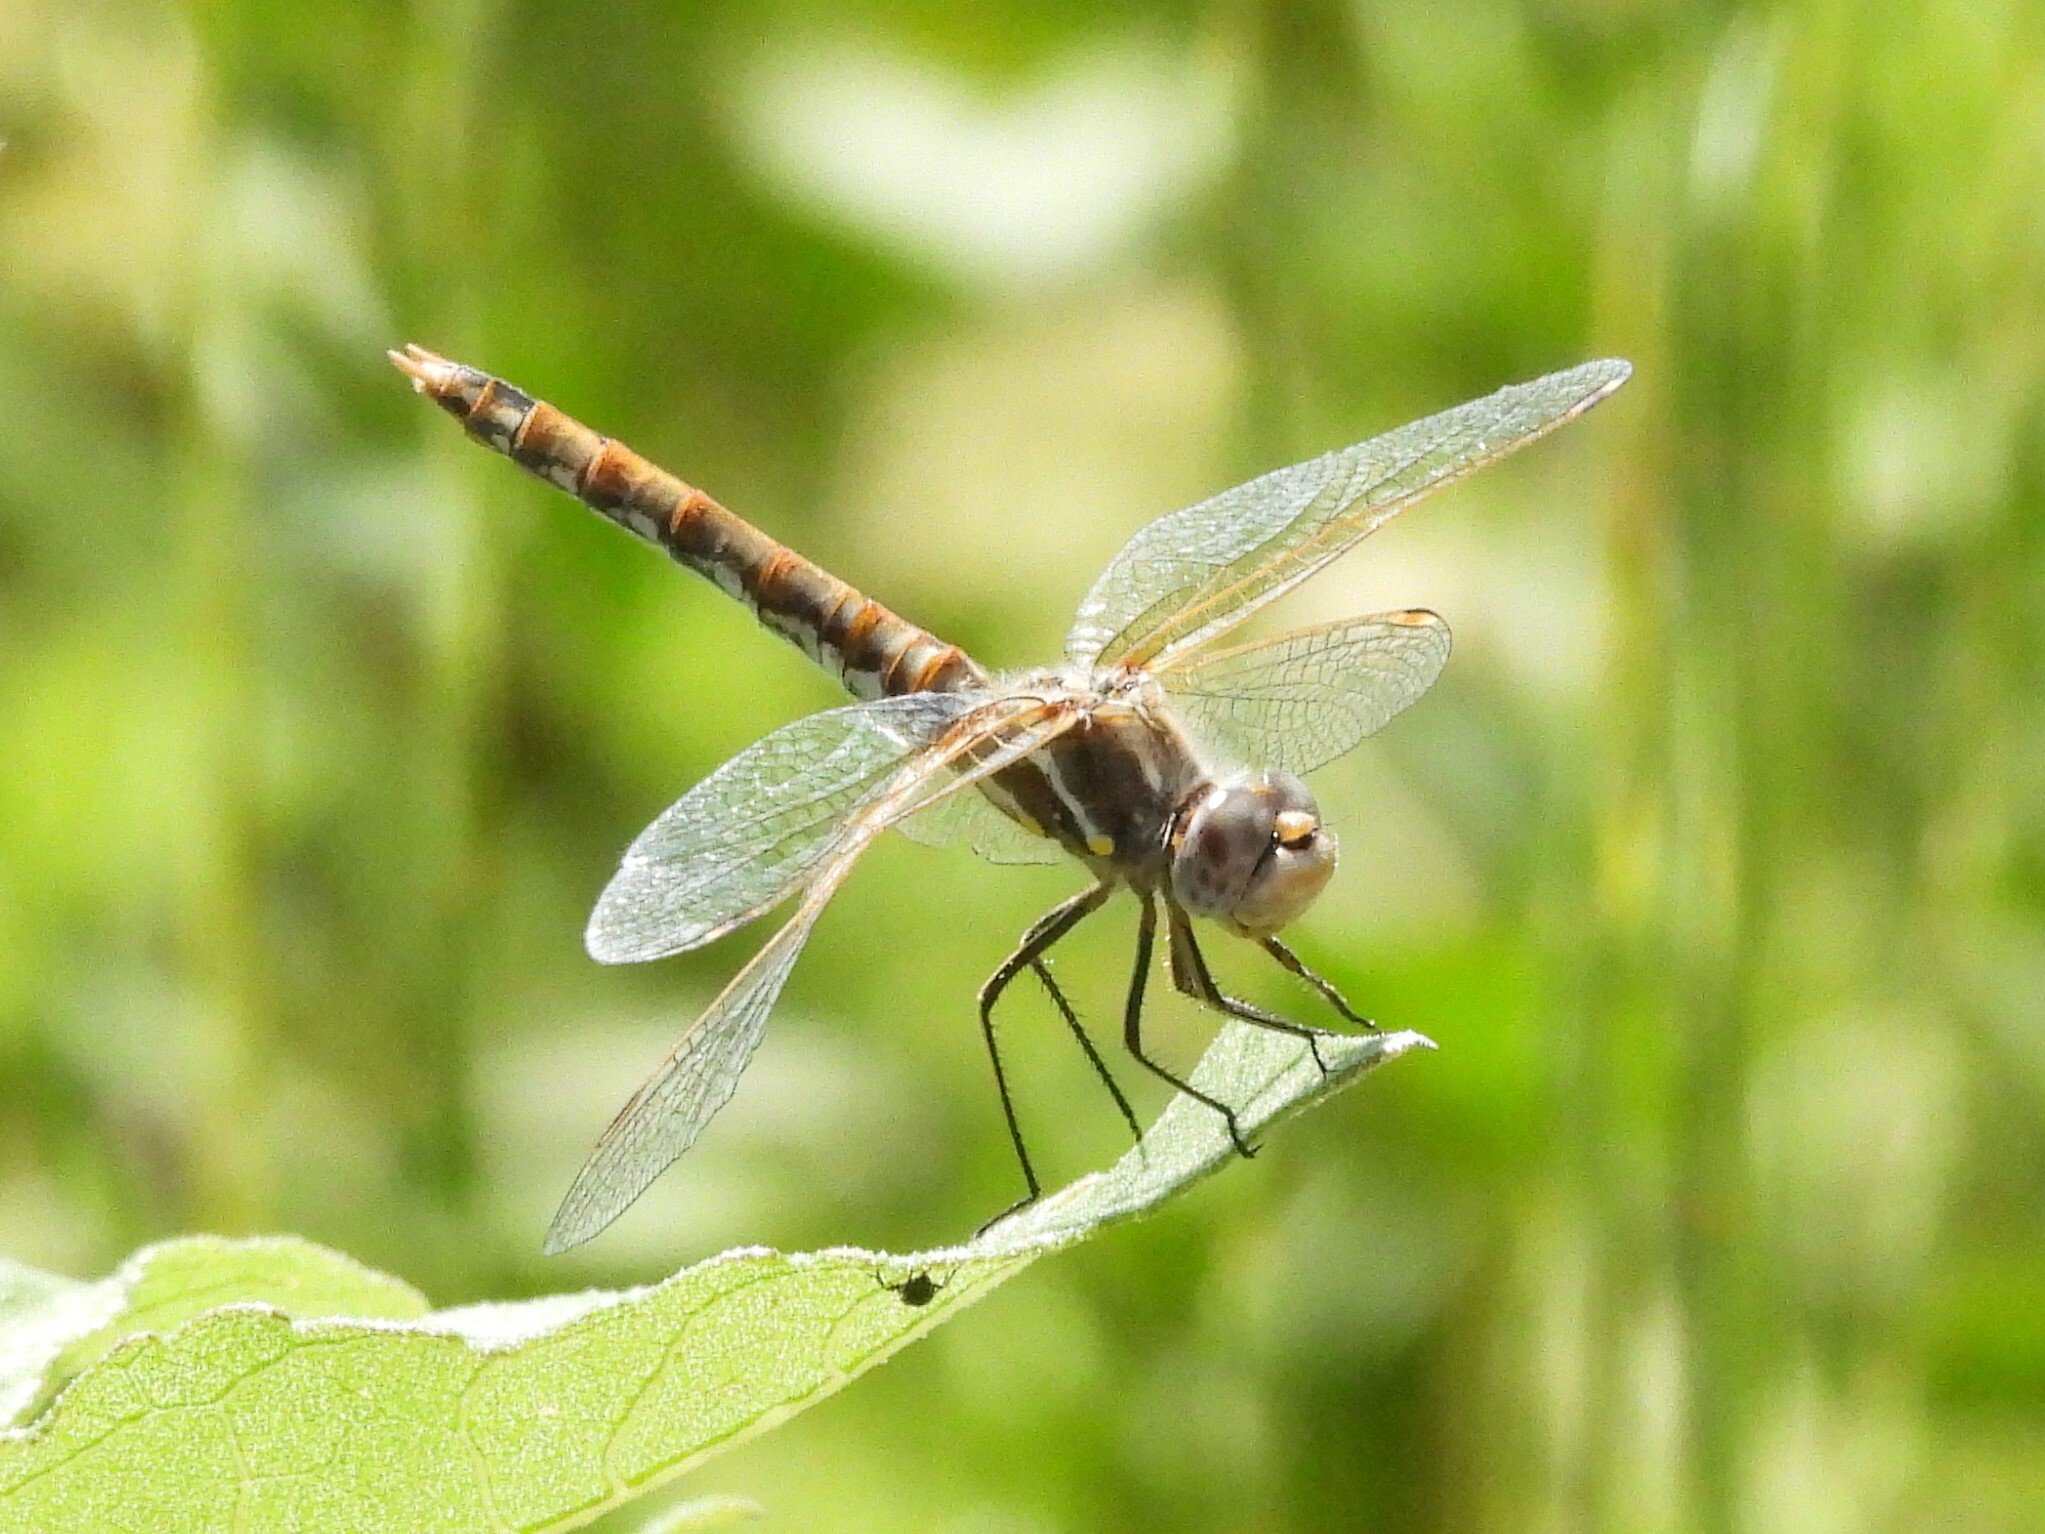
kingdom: Animalia
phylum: Arthropoda
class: Insecta
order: Odonata
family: Libellulidae
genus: Sympetrum
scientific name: Sympetrum corruptum
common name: Variegated meadowhawk
